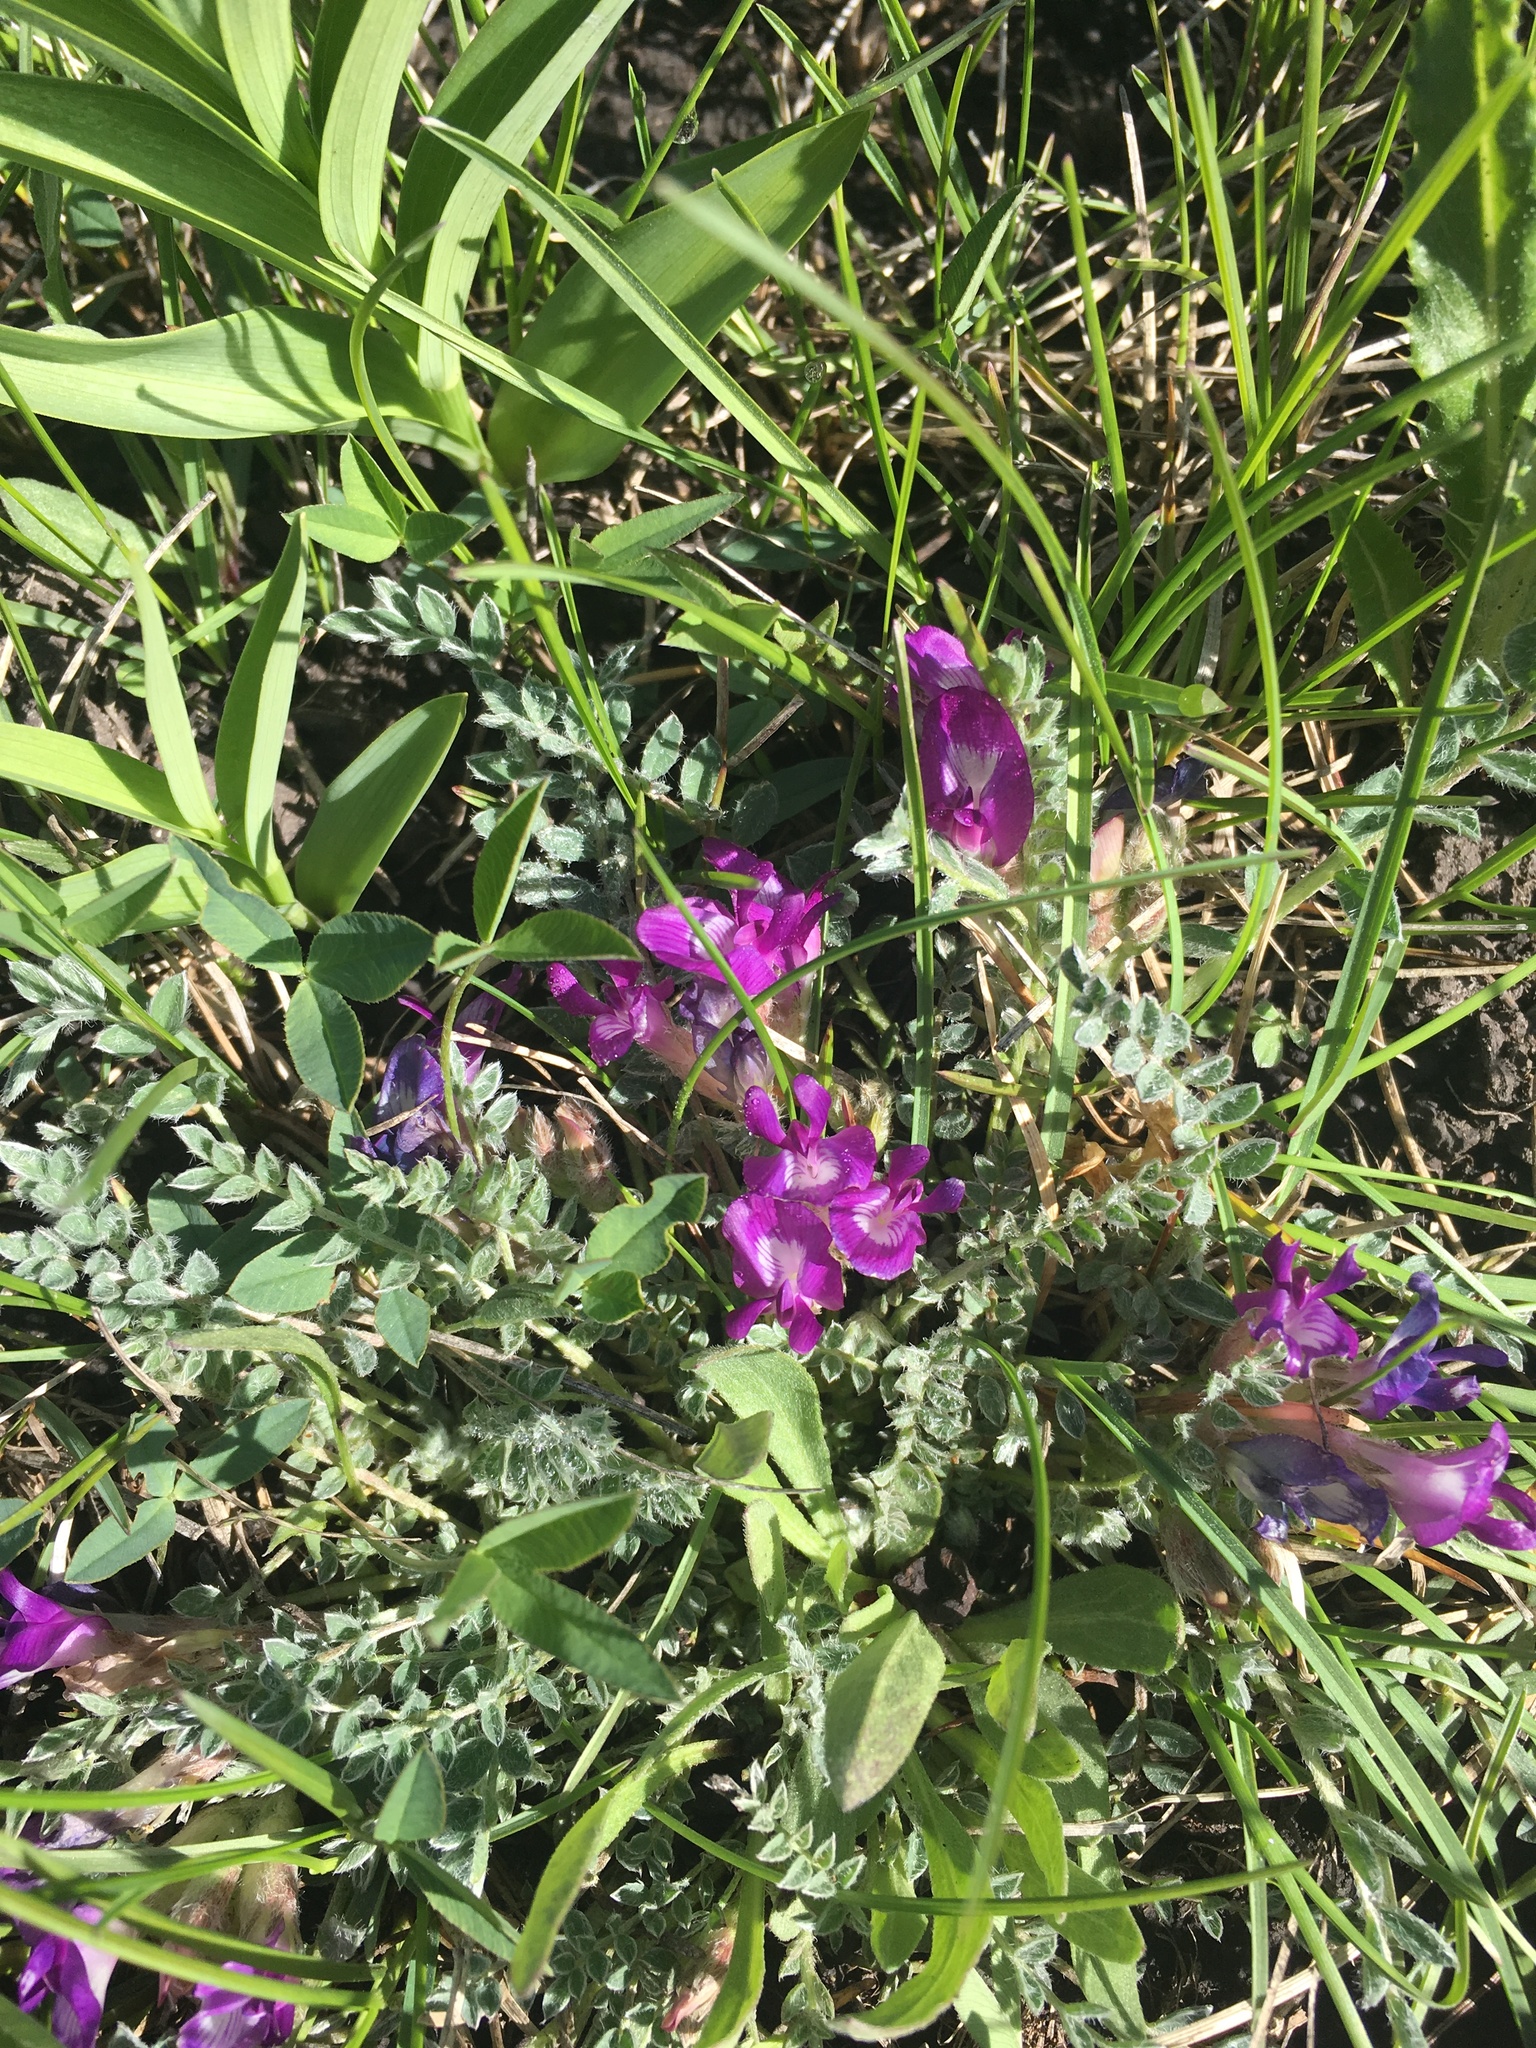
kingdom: Plantae
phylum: Tracheophyta
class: Magnoliopsida
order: Fabales
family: Fabaceae
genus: Astragalus
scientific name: Astragalus calycosus
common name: King's milkvetch
